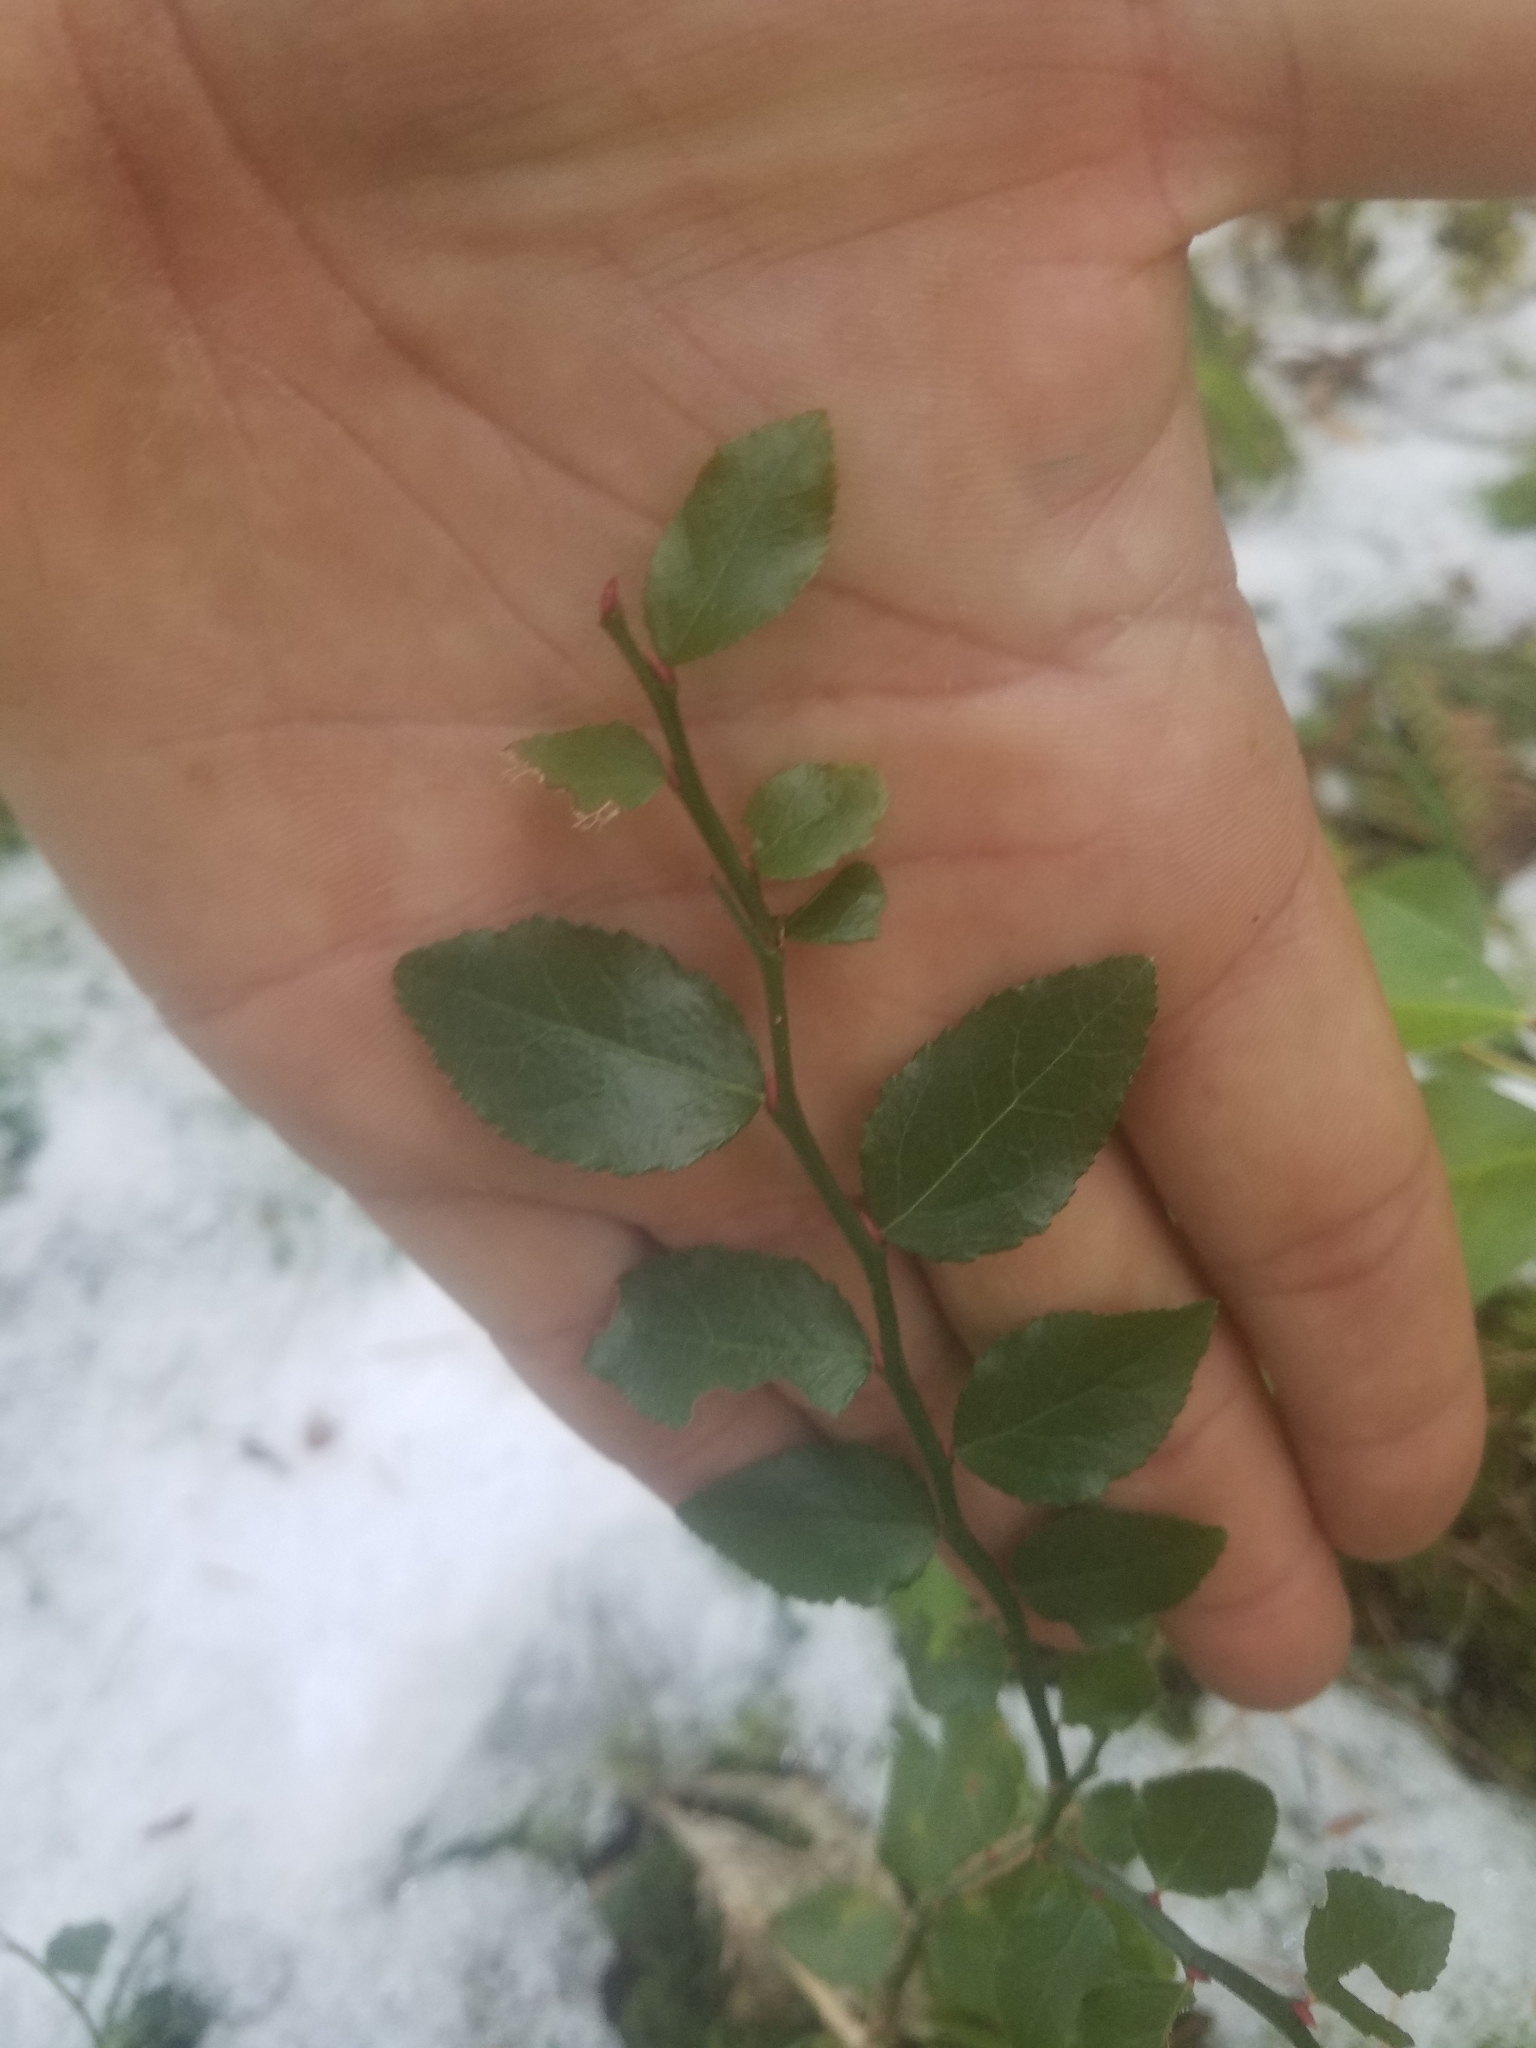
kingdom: Plantae
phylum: Tracheophyta
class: Magnoliopsida
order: Ericales
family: Ericaceae
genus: Vaccinium
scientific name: Vaccinium parvifolium
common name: Red-huckleberry
